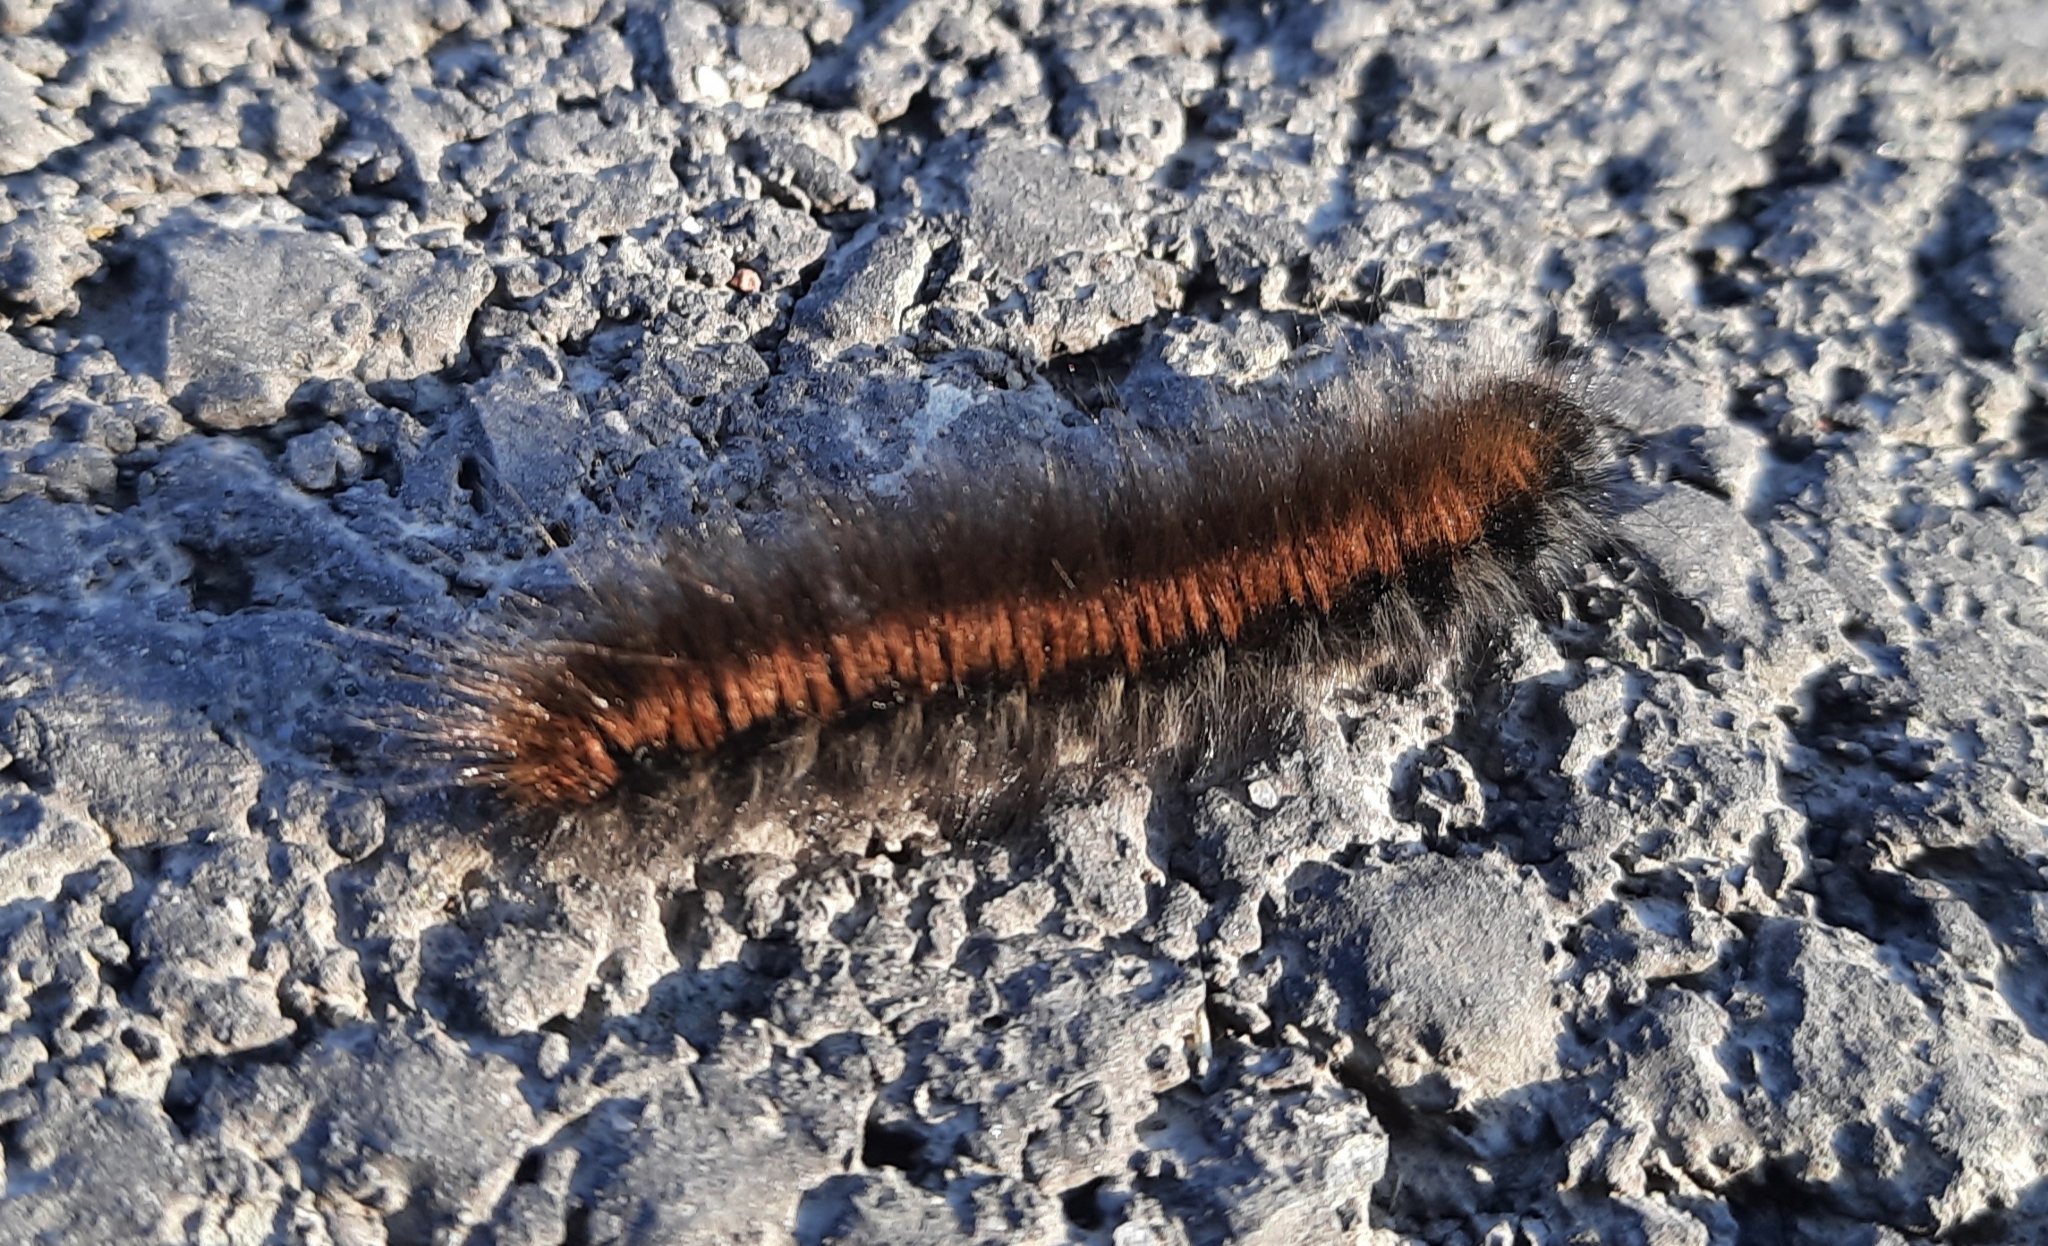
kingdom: Animalia
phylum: Arthropoda
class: Insecta
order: Lepidoptera
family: Lasiocampidae
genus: Macrothylacia
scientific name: Macrothylacia rubi
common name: Fox moth
